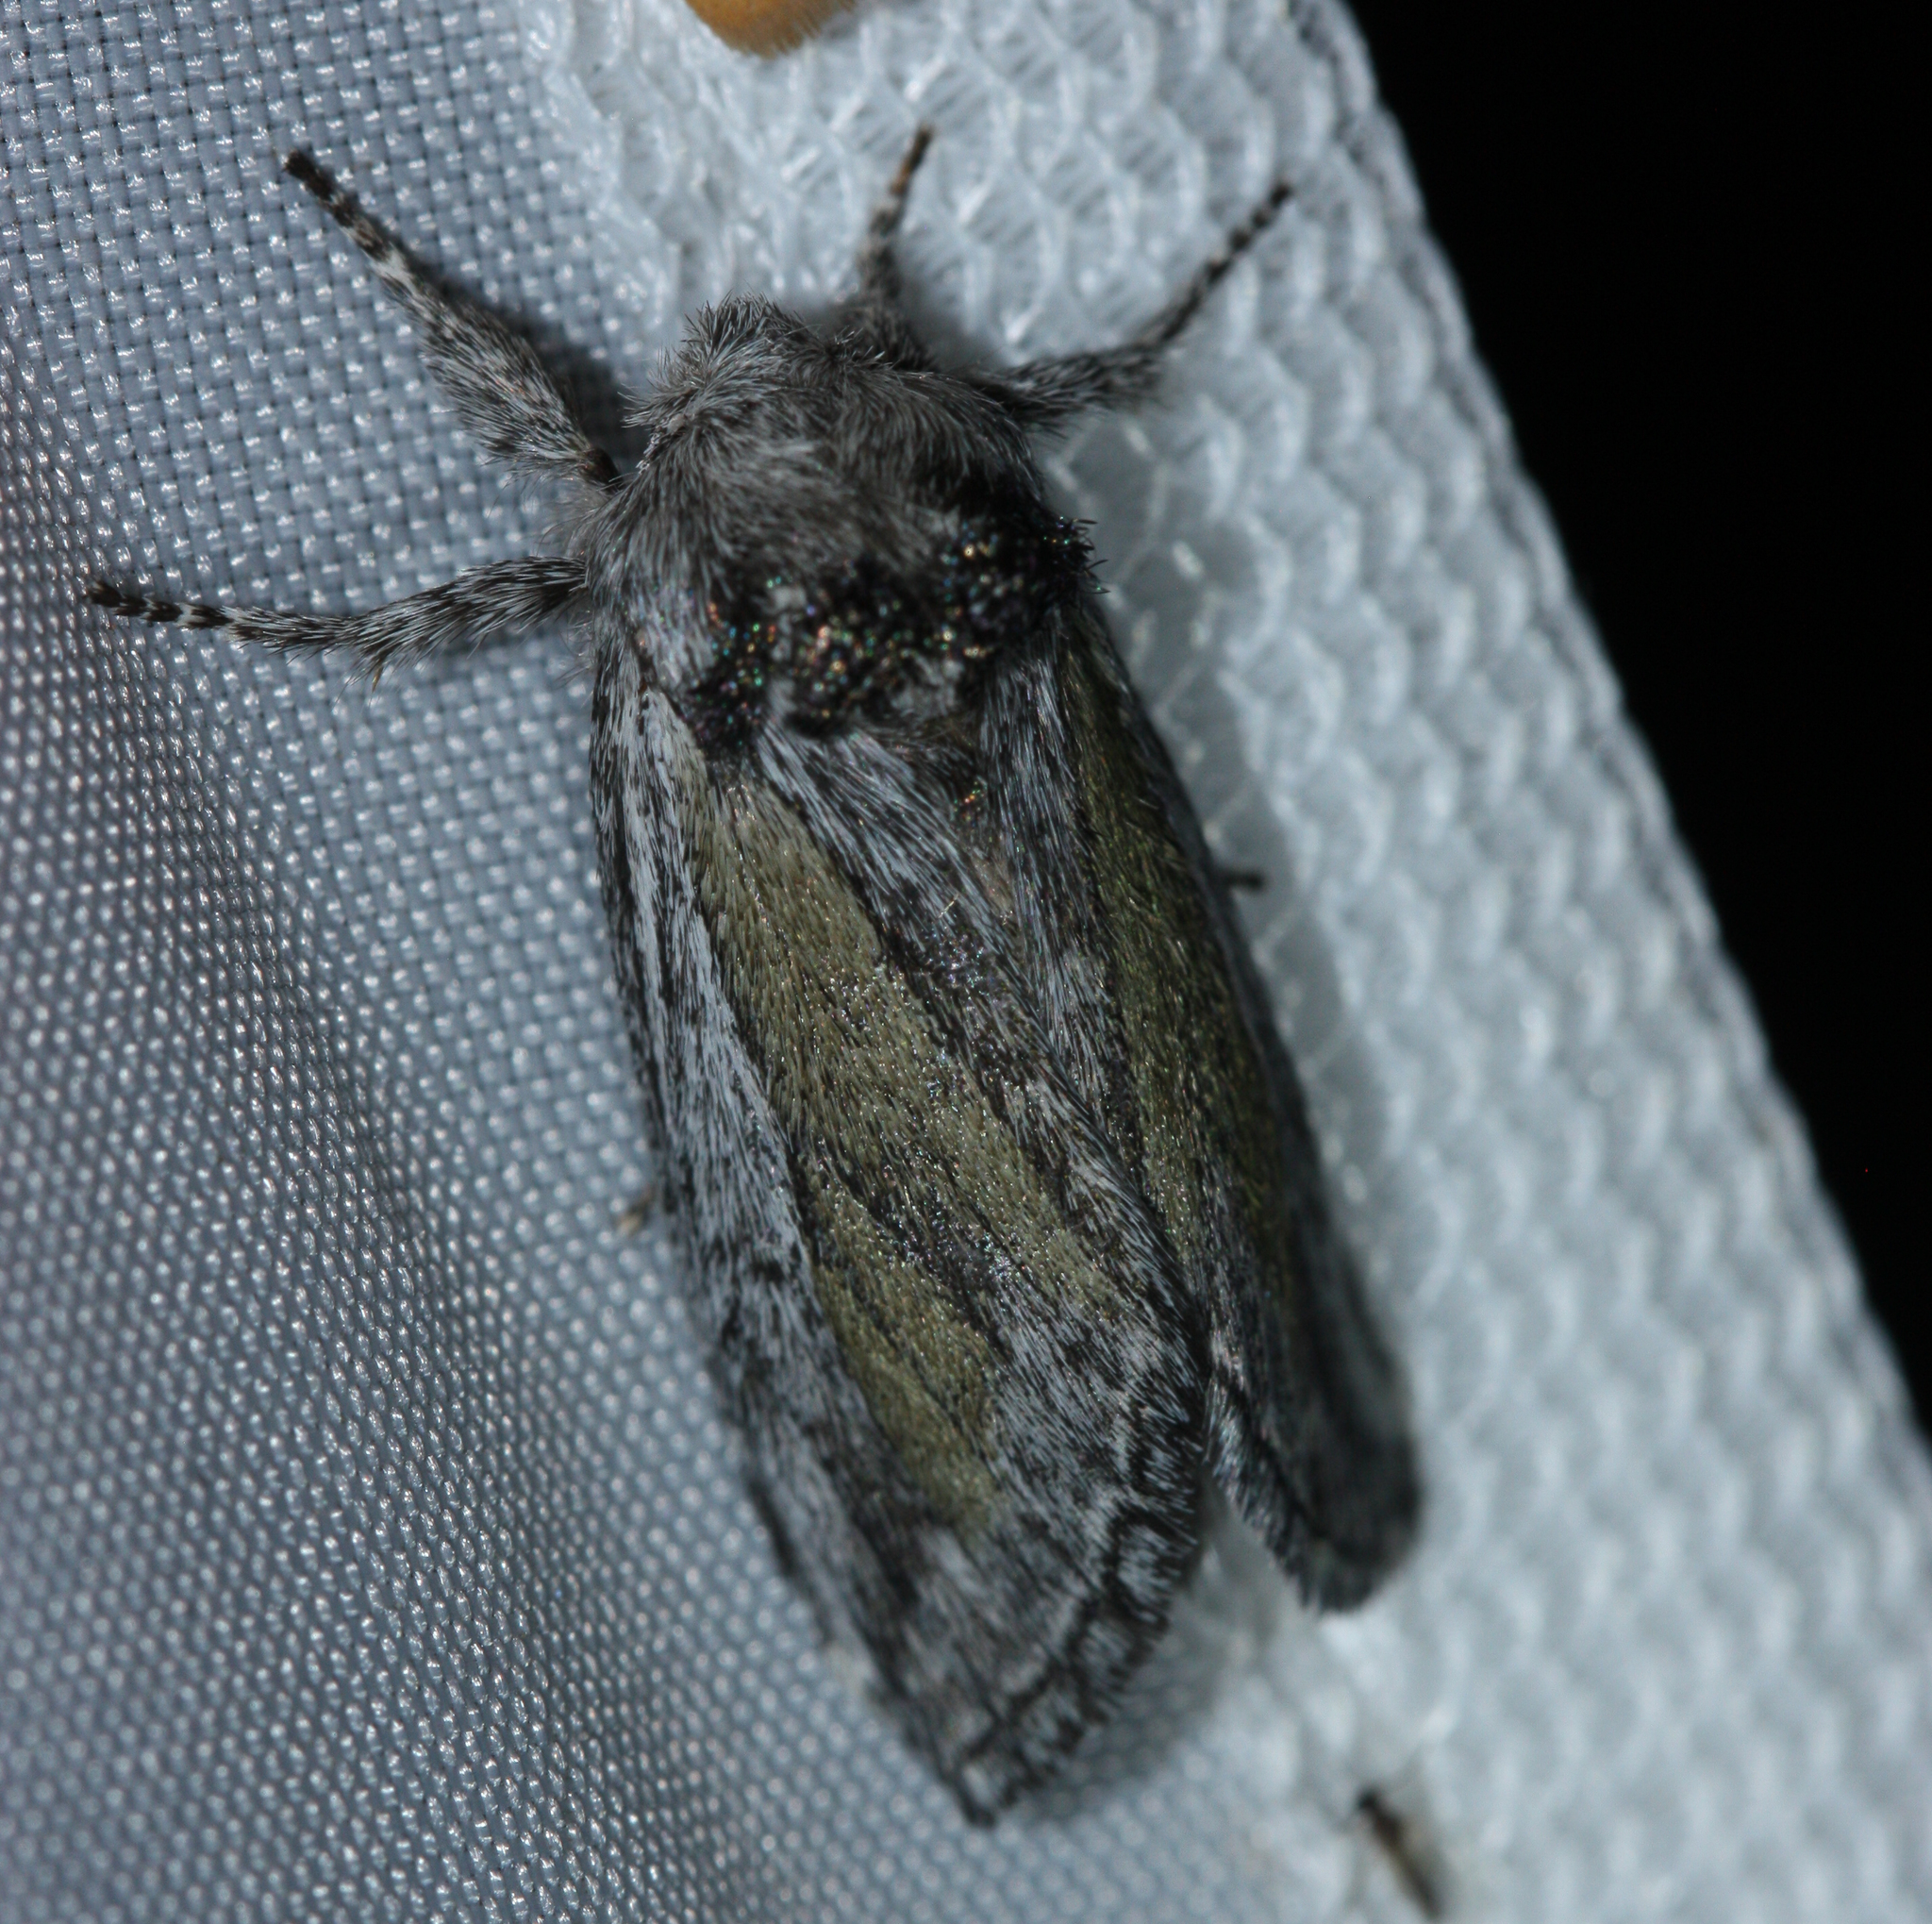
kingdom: Animalia
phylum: Arthropoda
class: Insecta
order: Lepidoptera
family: Notodontidae
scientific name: Notodontidae
